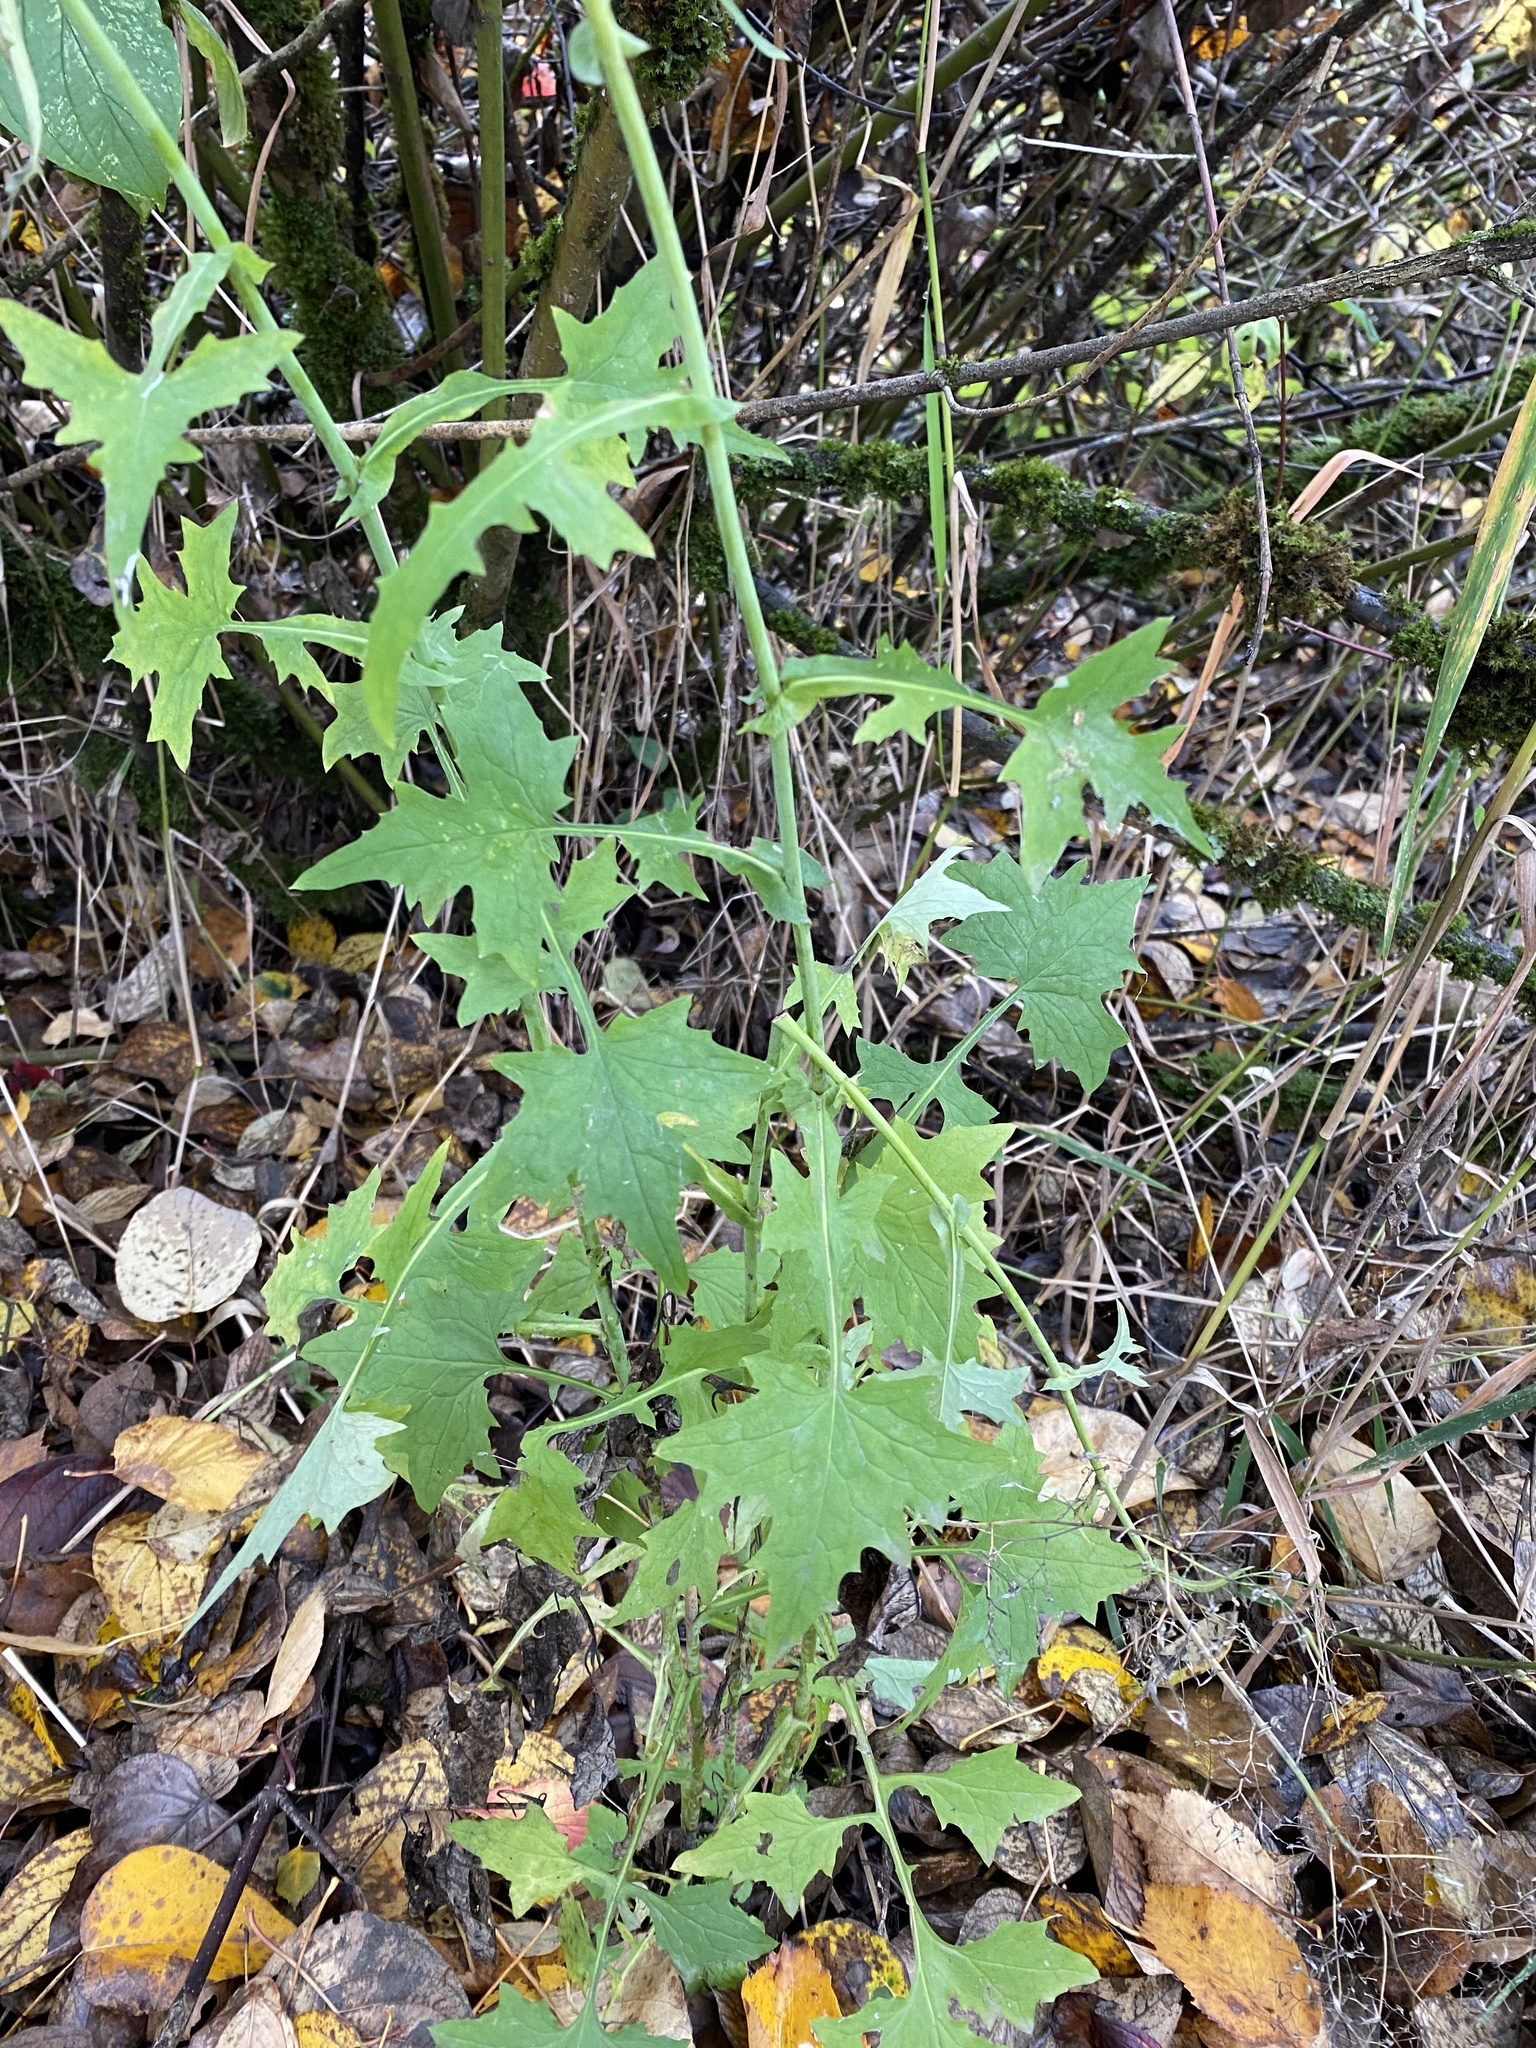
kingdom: Plantae
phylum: Tracheophyta
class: Magnoliopsida
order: Asterales
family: Asteraceae
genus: Mycelis
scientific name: Mycelis muralis
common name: Wall lettuce
